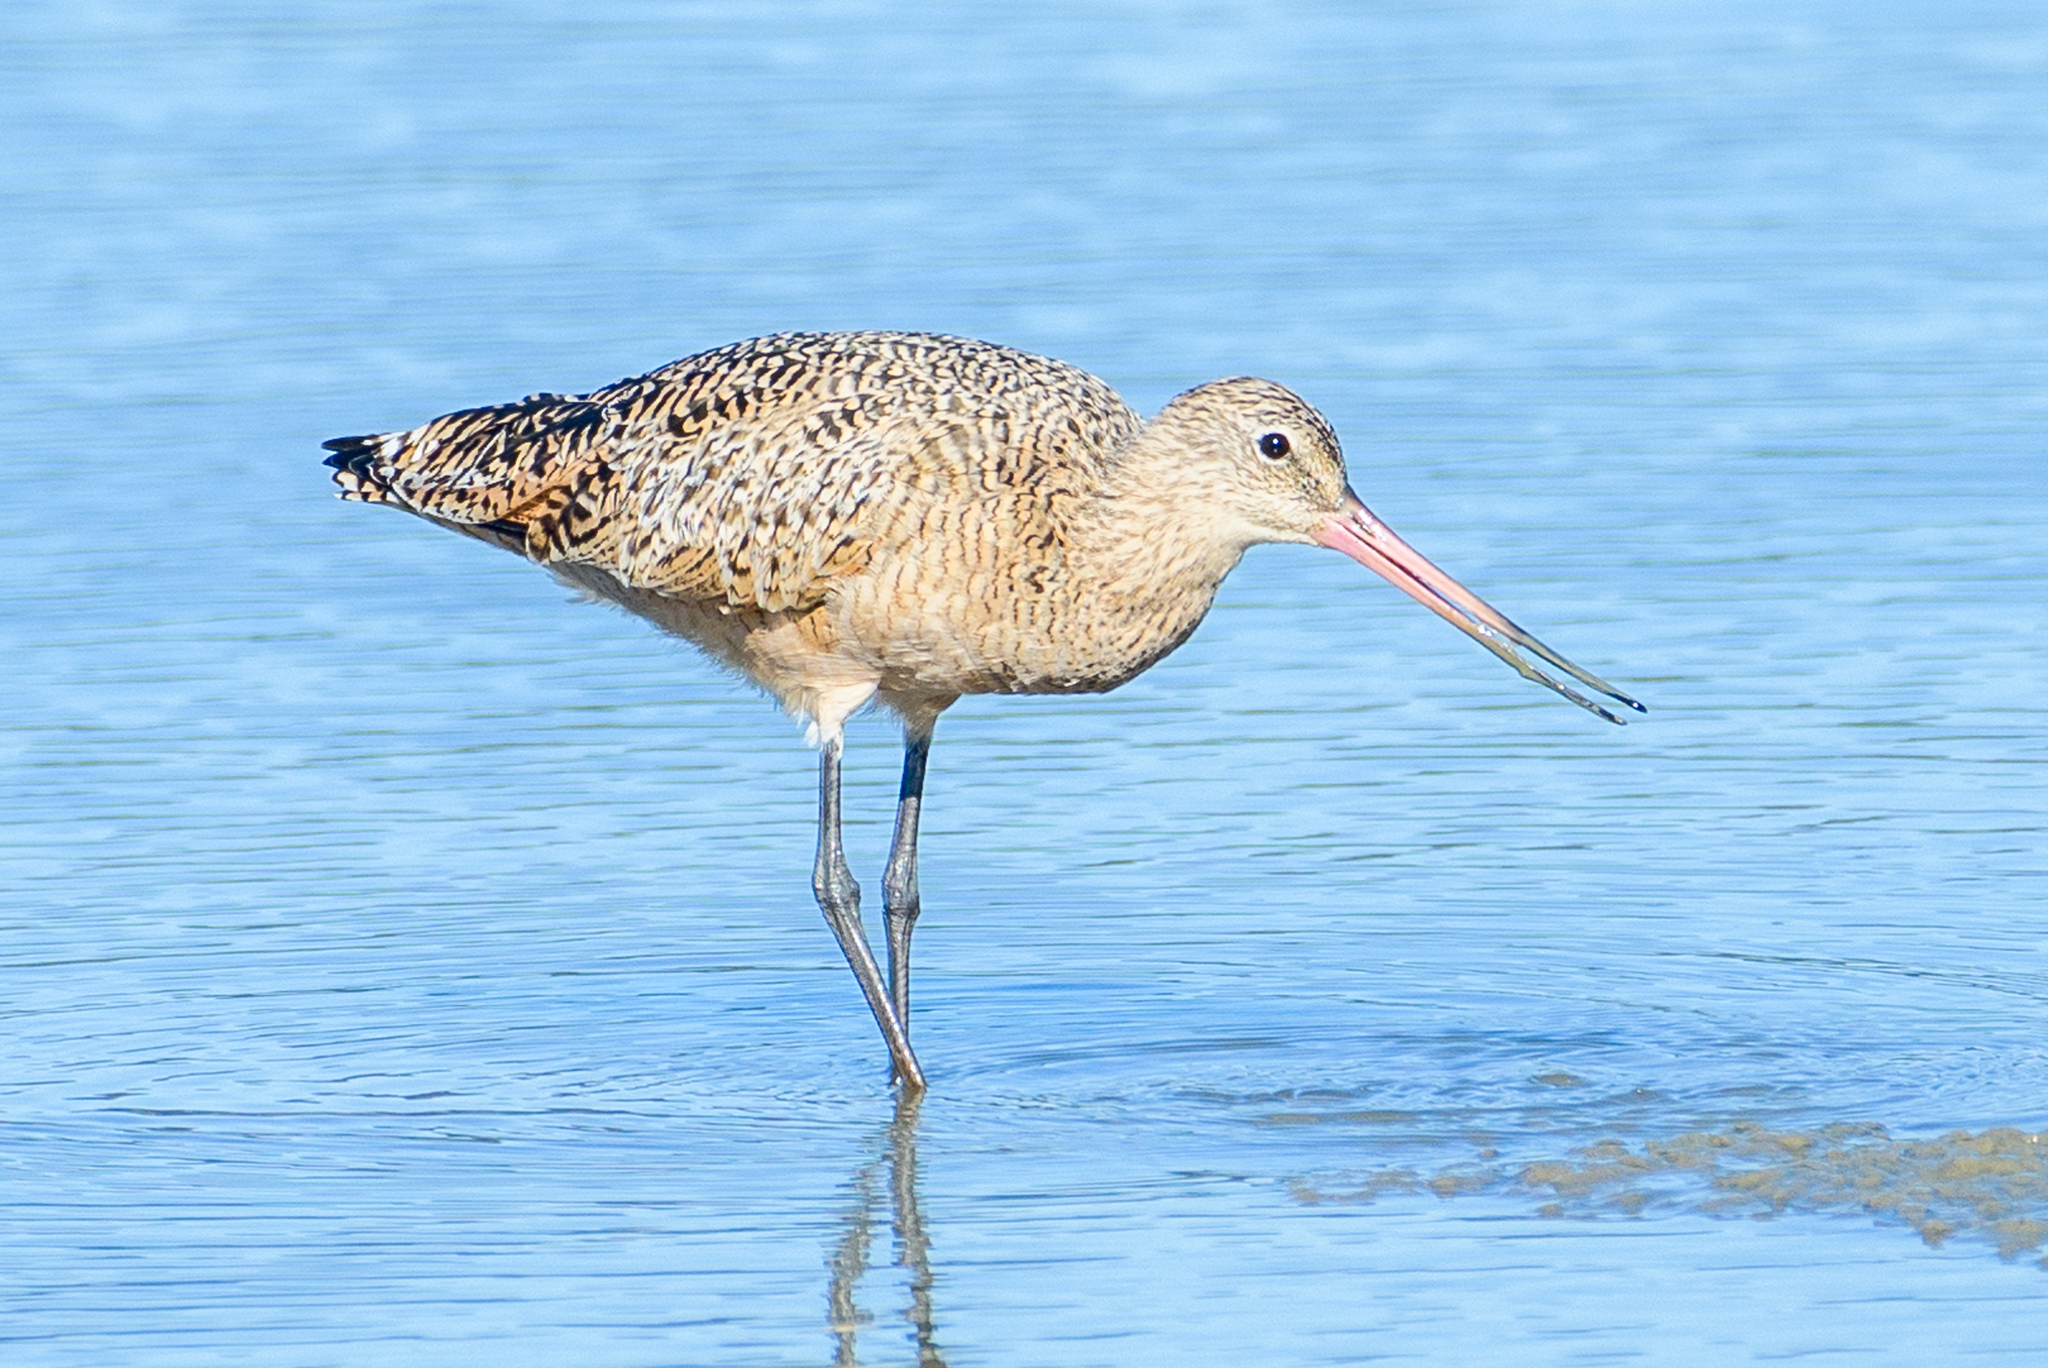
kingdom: Animalia
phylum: Chordata
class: Aves
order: Charadriiformes
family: Scolopacidae
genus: Limosa
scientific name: Limosa fedoa
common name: Marbled godwit
